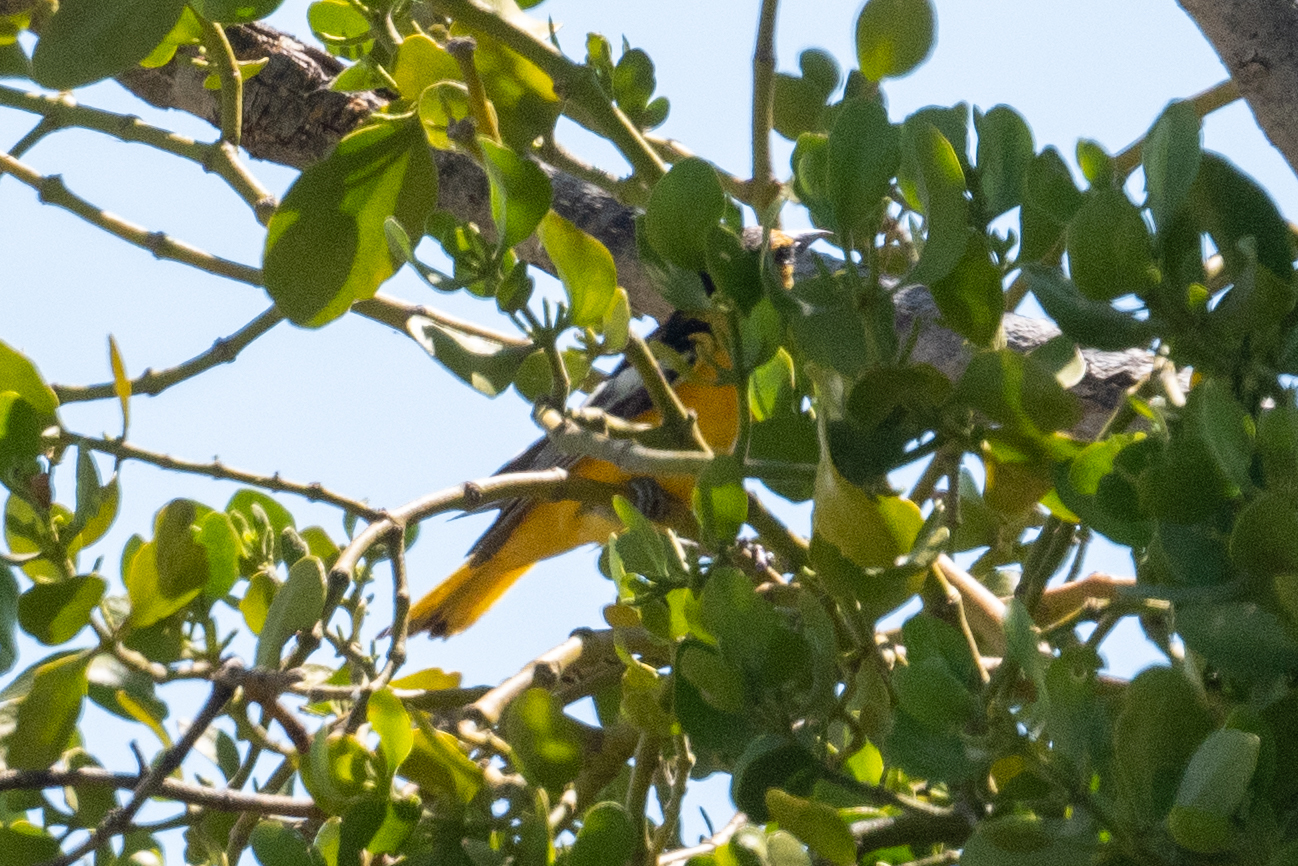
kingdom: Animalia
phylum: Chordata
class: Aves
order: Passeriformes
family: Icteridae
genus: Icterus
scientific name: Icterus bullockii
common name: Bullock's oriole
